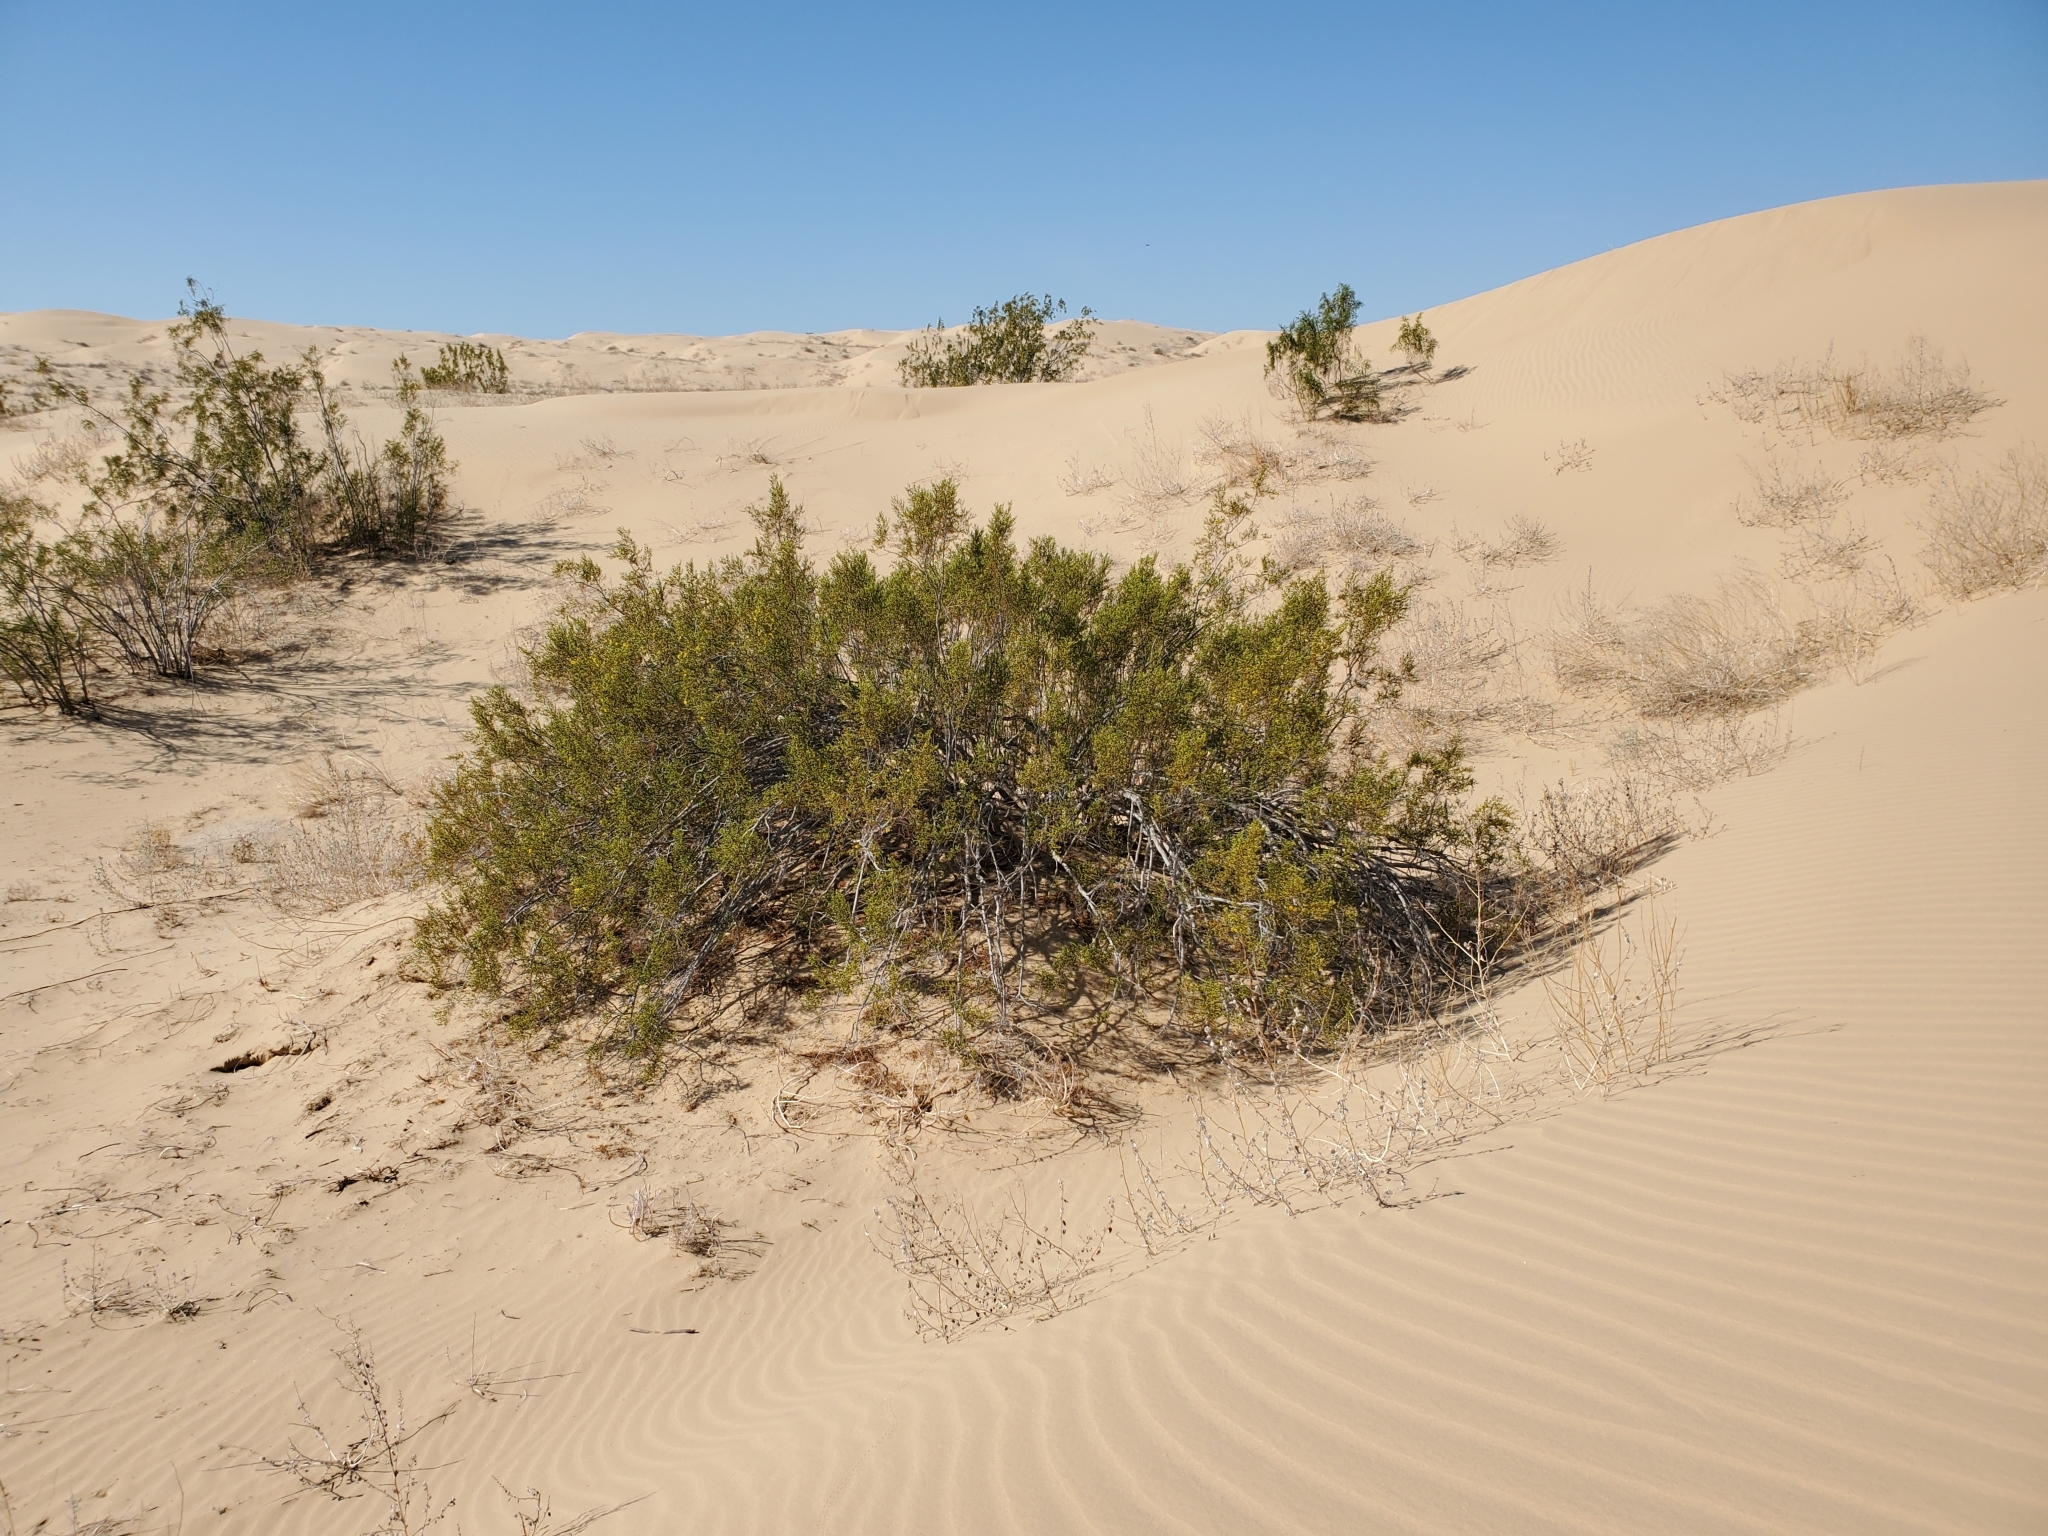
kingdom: Plantae
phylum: Tracheophyta
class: Magnoliopsida
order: Zygophyllales
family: Zygophyllaceae
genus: Larrea
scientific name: Larrea tridentata
